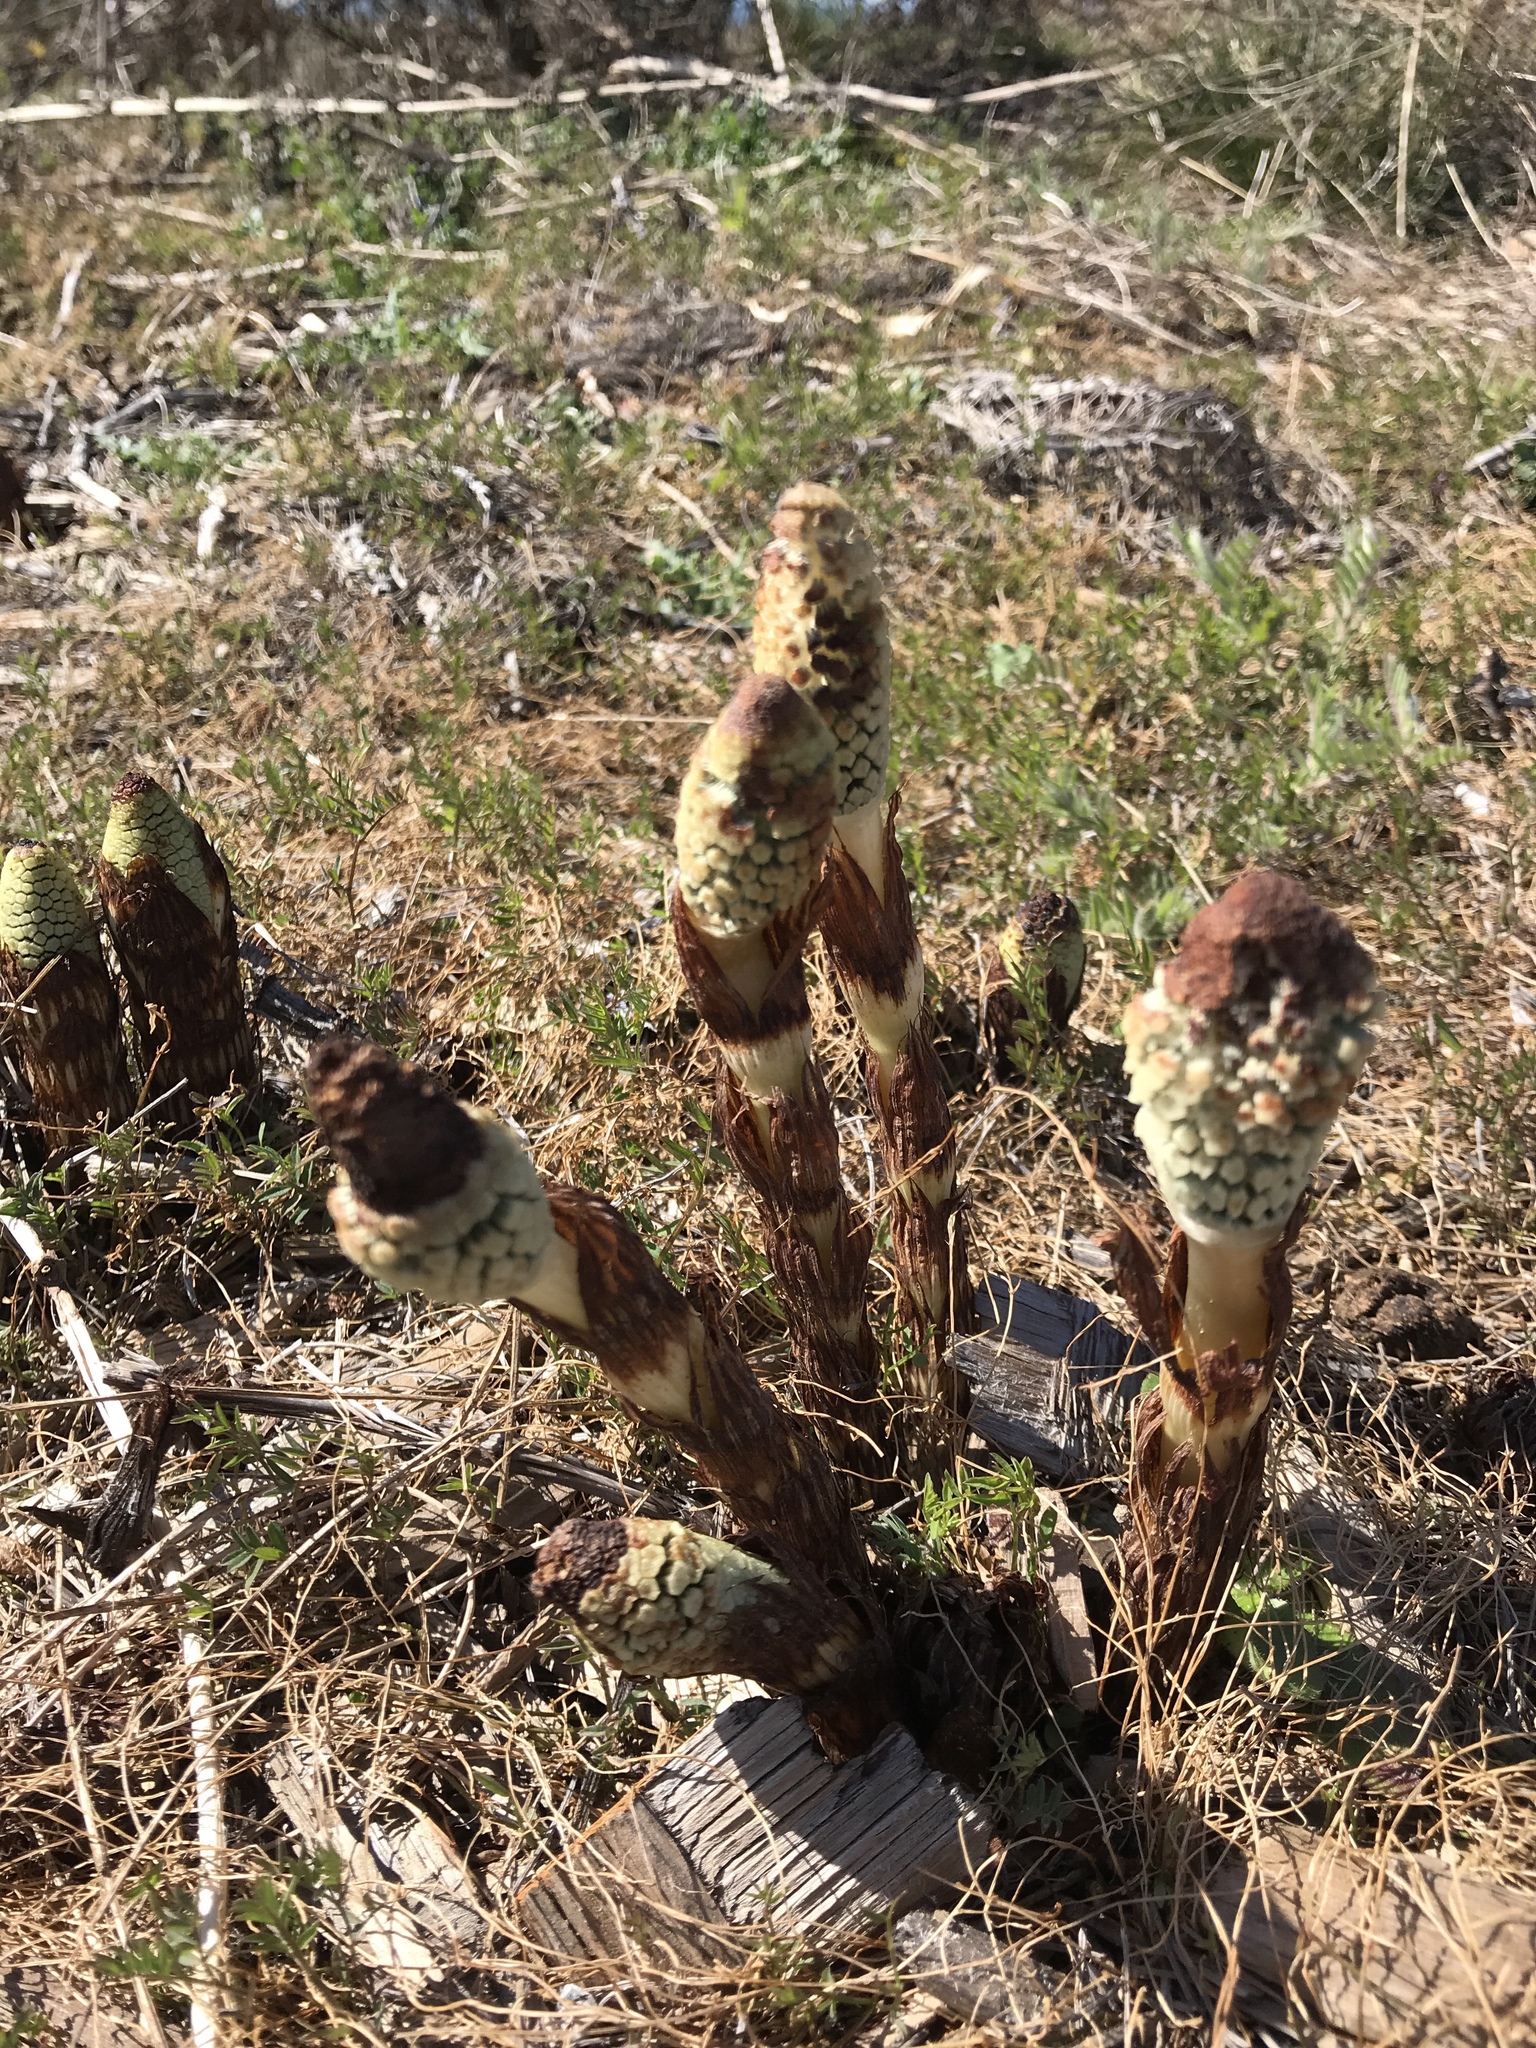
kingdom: Plantae
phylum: Tracheophyta
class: Polypodiopsida
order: Equisetales
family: Equisetaceae
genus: Equisetum
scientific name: Equisetum braunii
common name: Braun's horsetail
